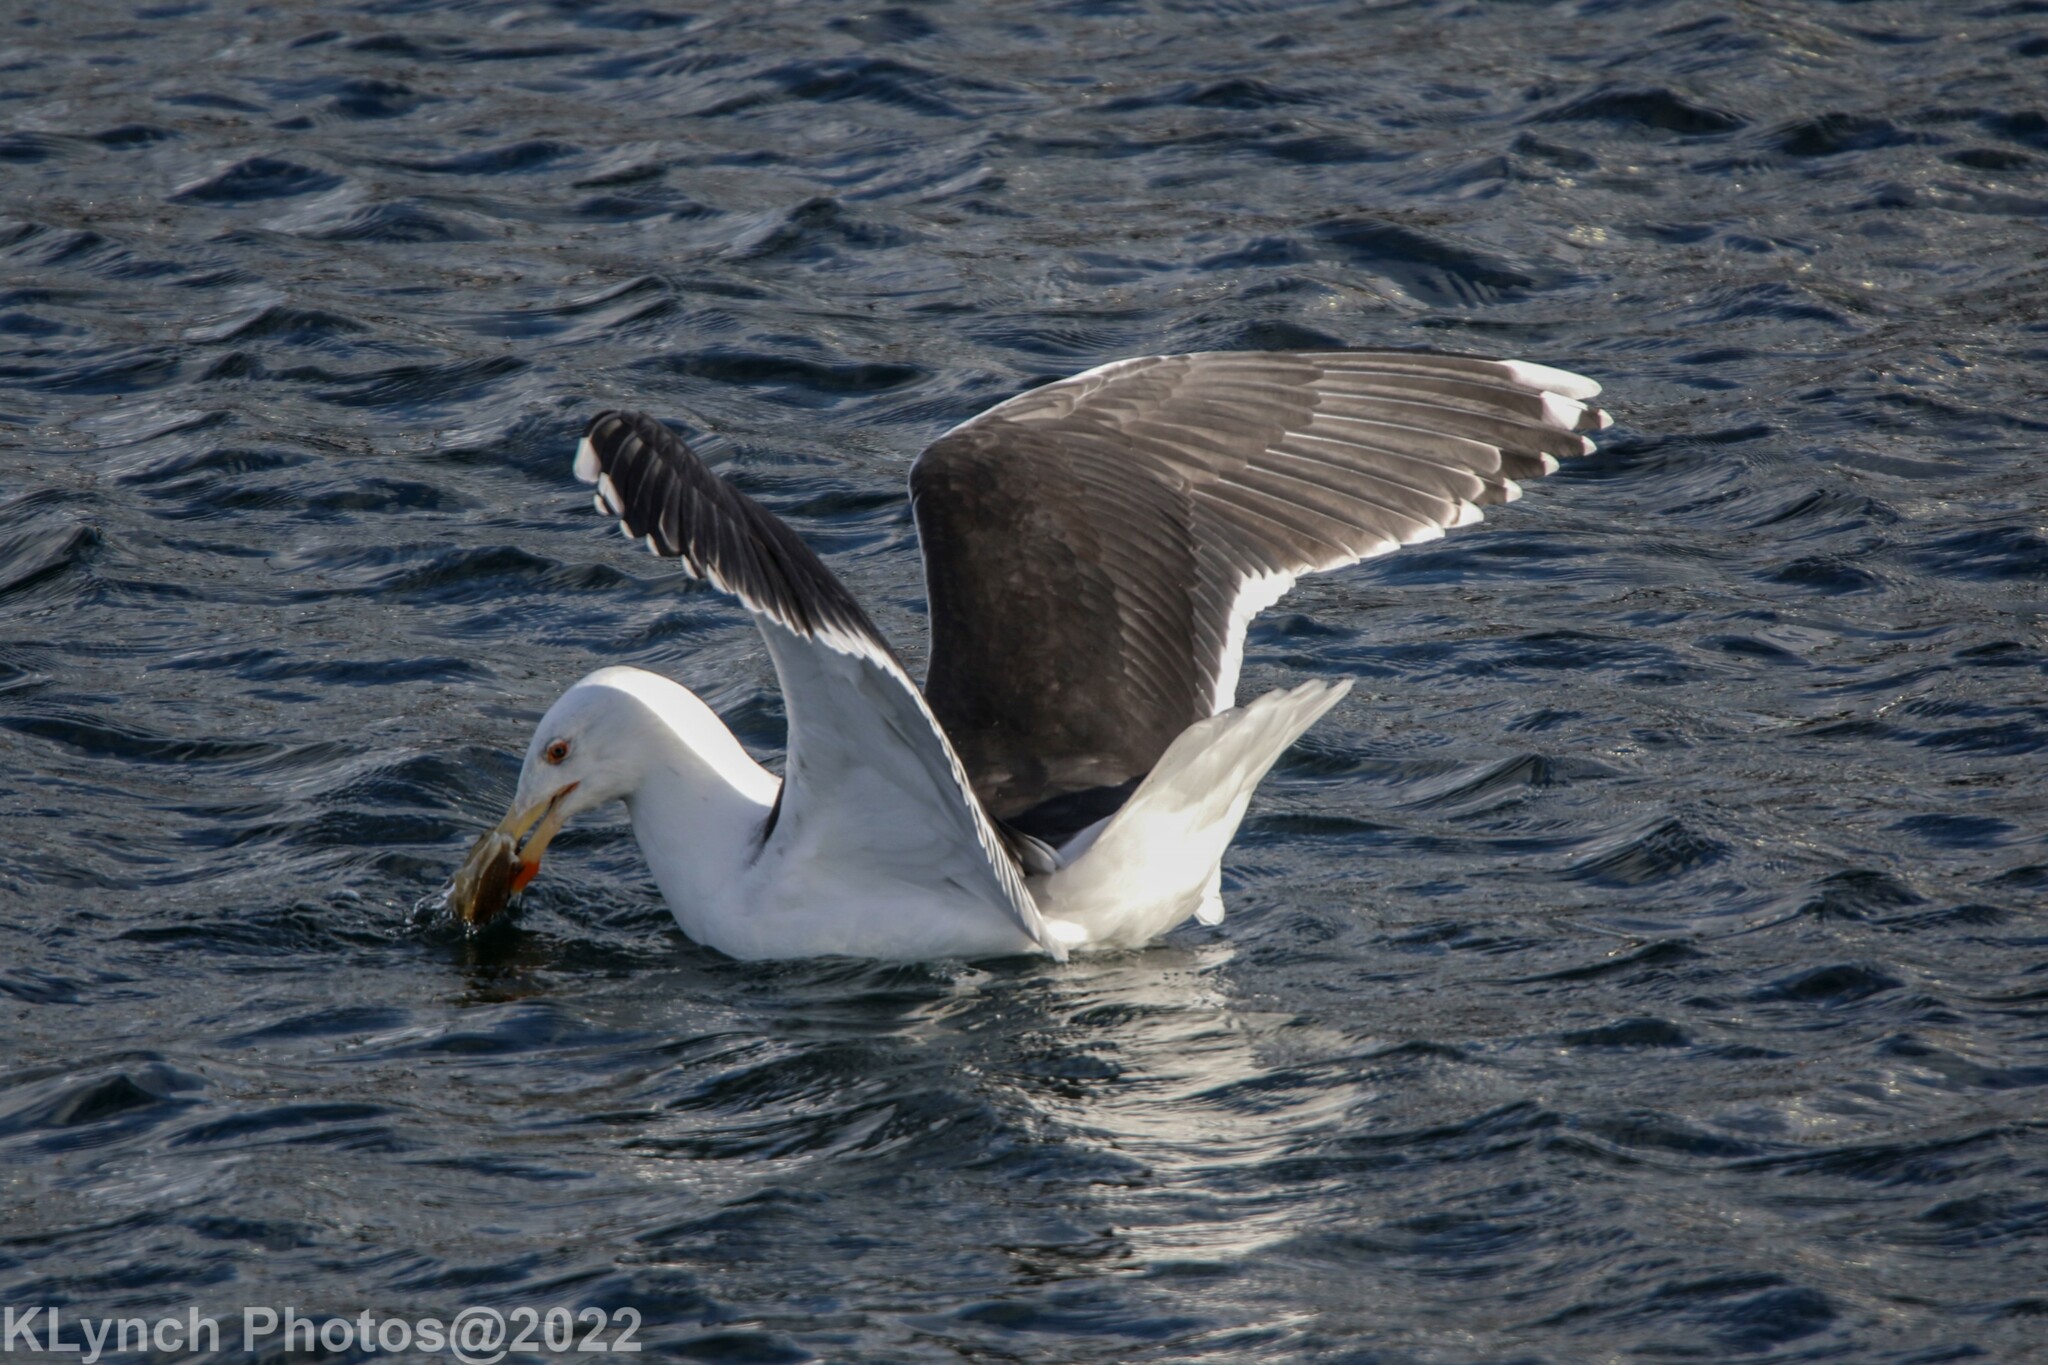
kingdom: Animalia
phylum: Chordata
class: Aves
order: Charadriiformes
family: Laridae
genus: Larus
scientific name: Larus marinus
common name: Great black-backed gull
